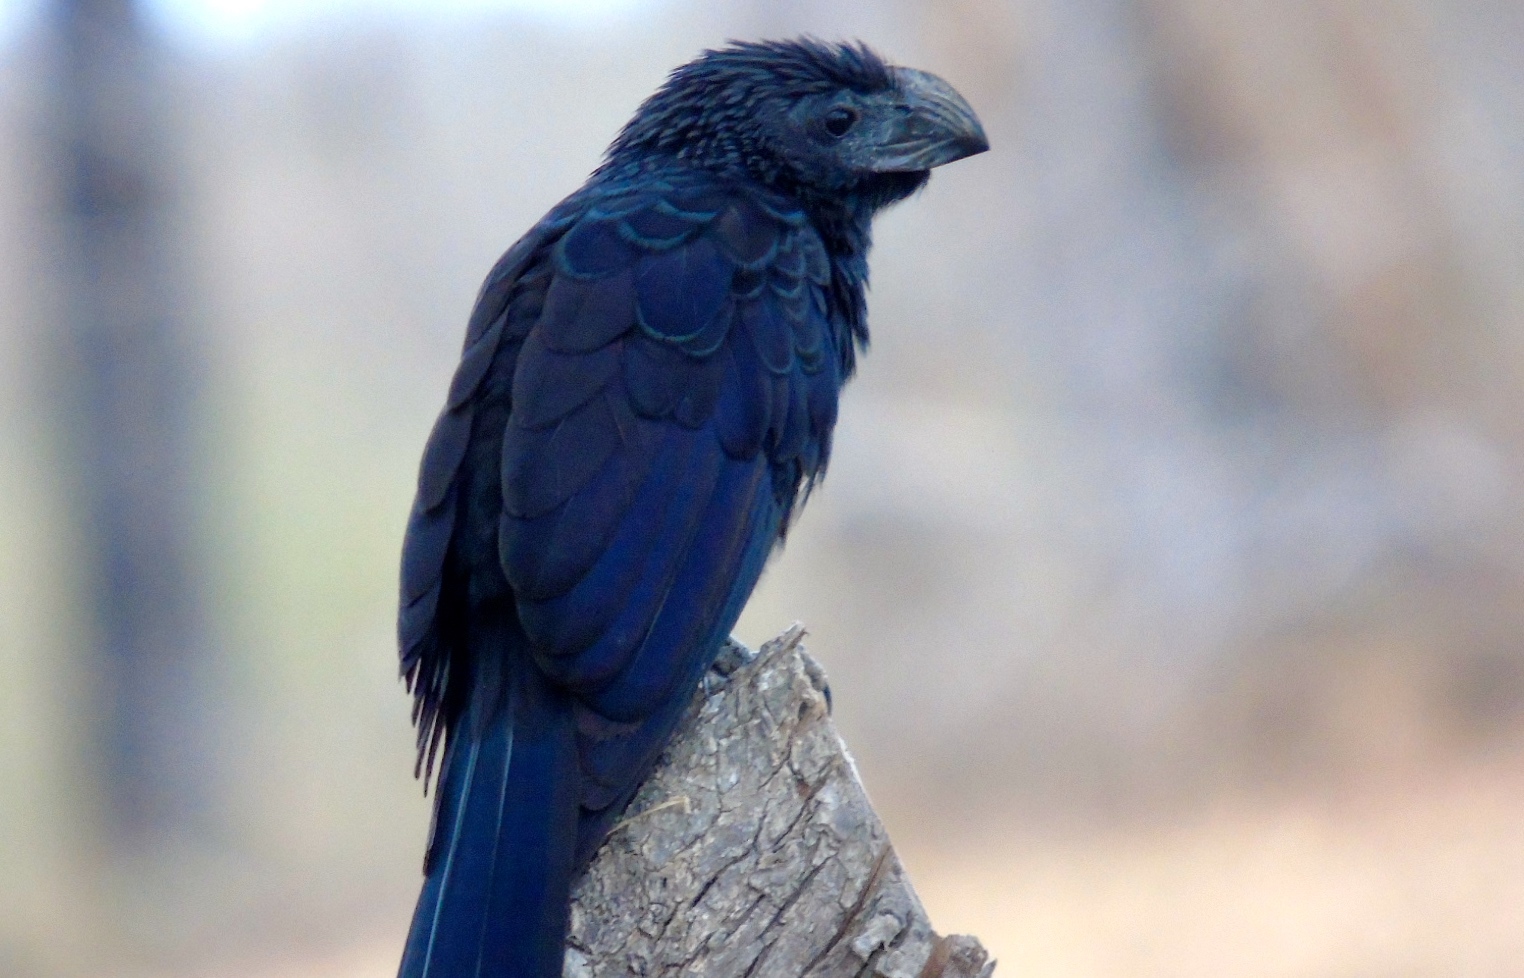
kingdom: Animalia
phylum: Chordata
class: Aves
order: Cuculiformes
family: Cuculidae
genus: Crotophaga
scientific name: Crotophaga sulcirostris
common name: Groove-billed ani
